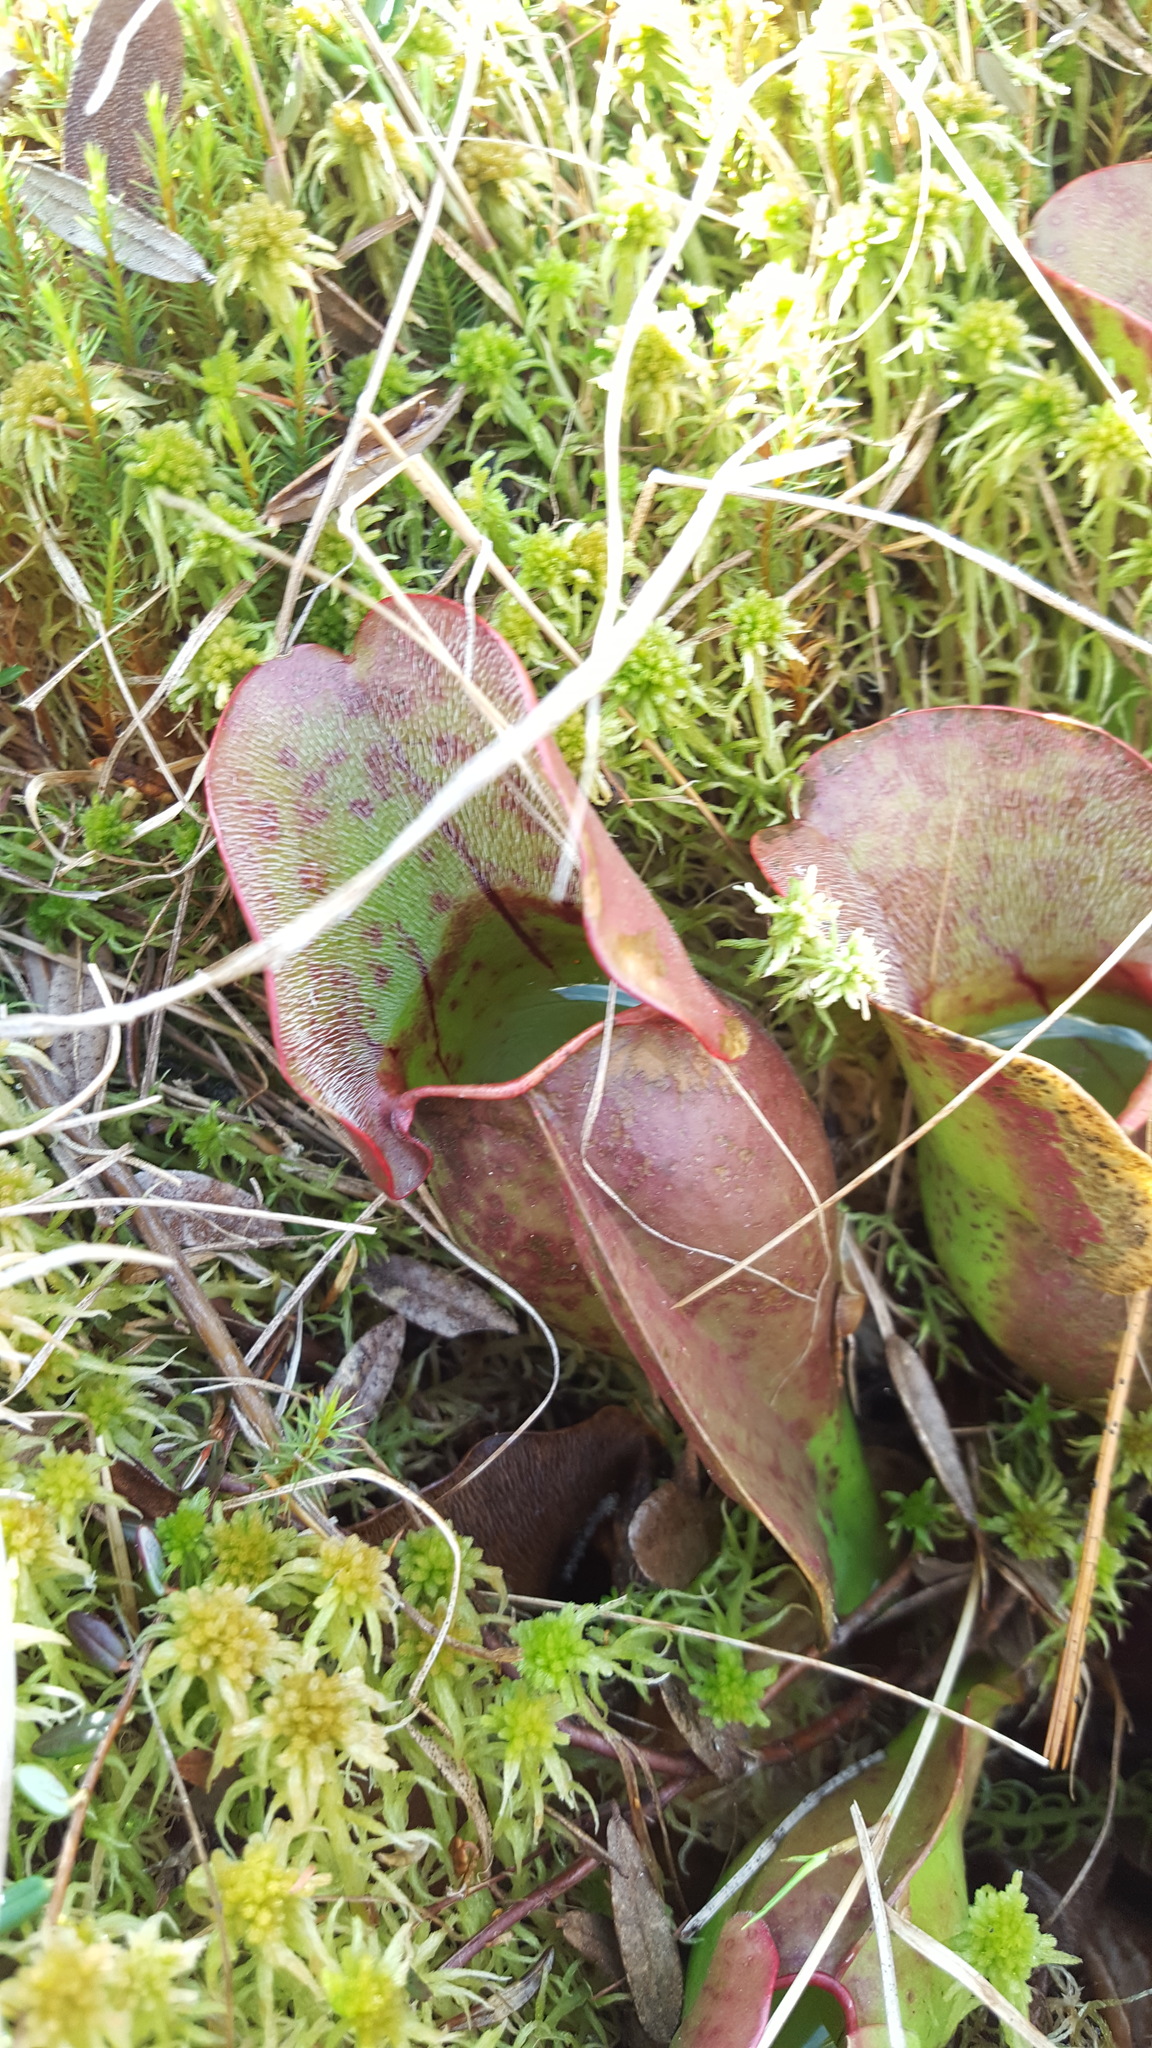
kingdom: Plantae
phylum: Tracheophyta
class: Magnoliopsida
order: Ericales
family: Sarraceniaceae
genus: Sarracenia
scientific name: Sarracenia purpurea
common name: Pitcherplant
